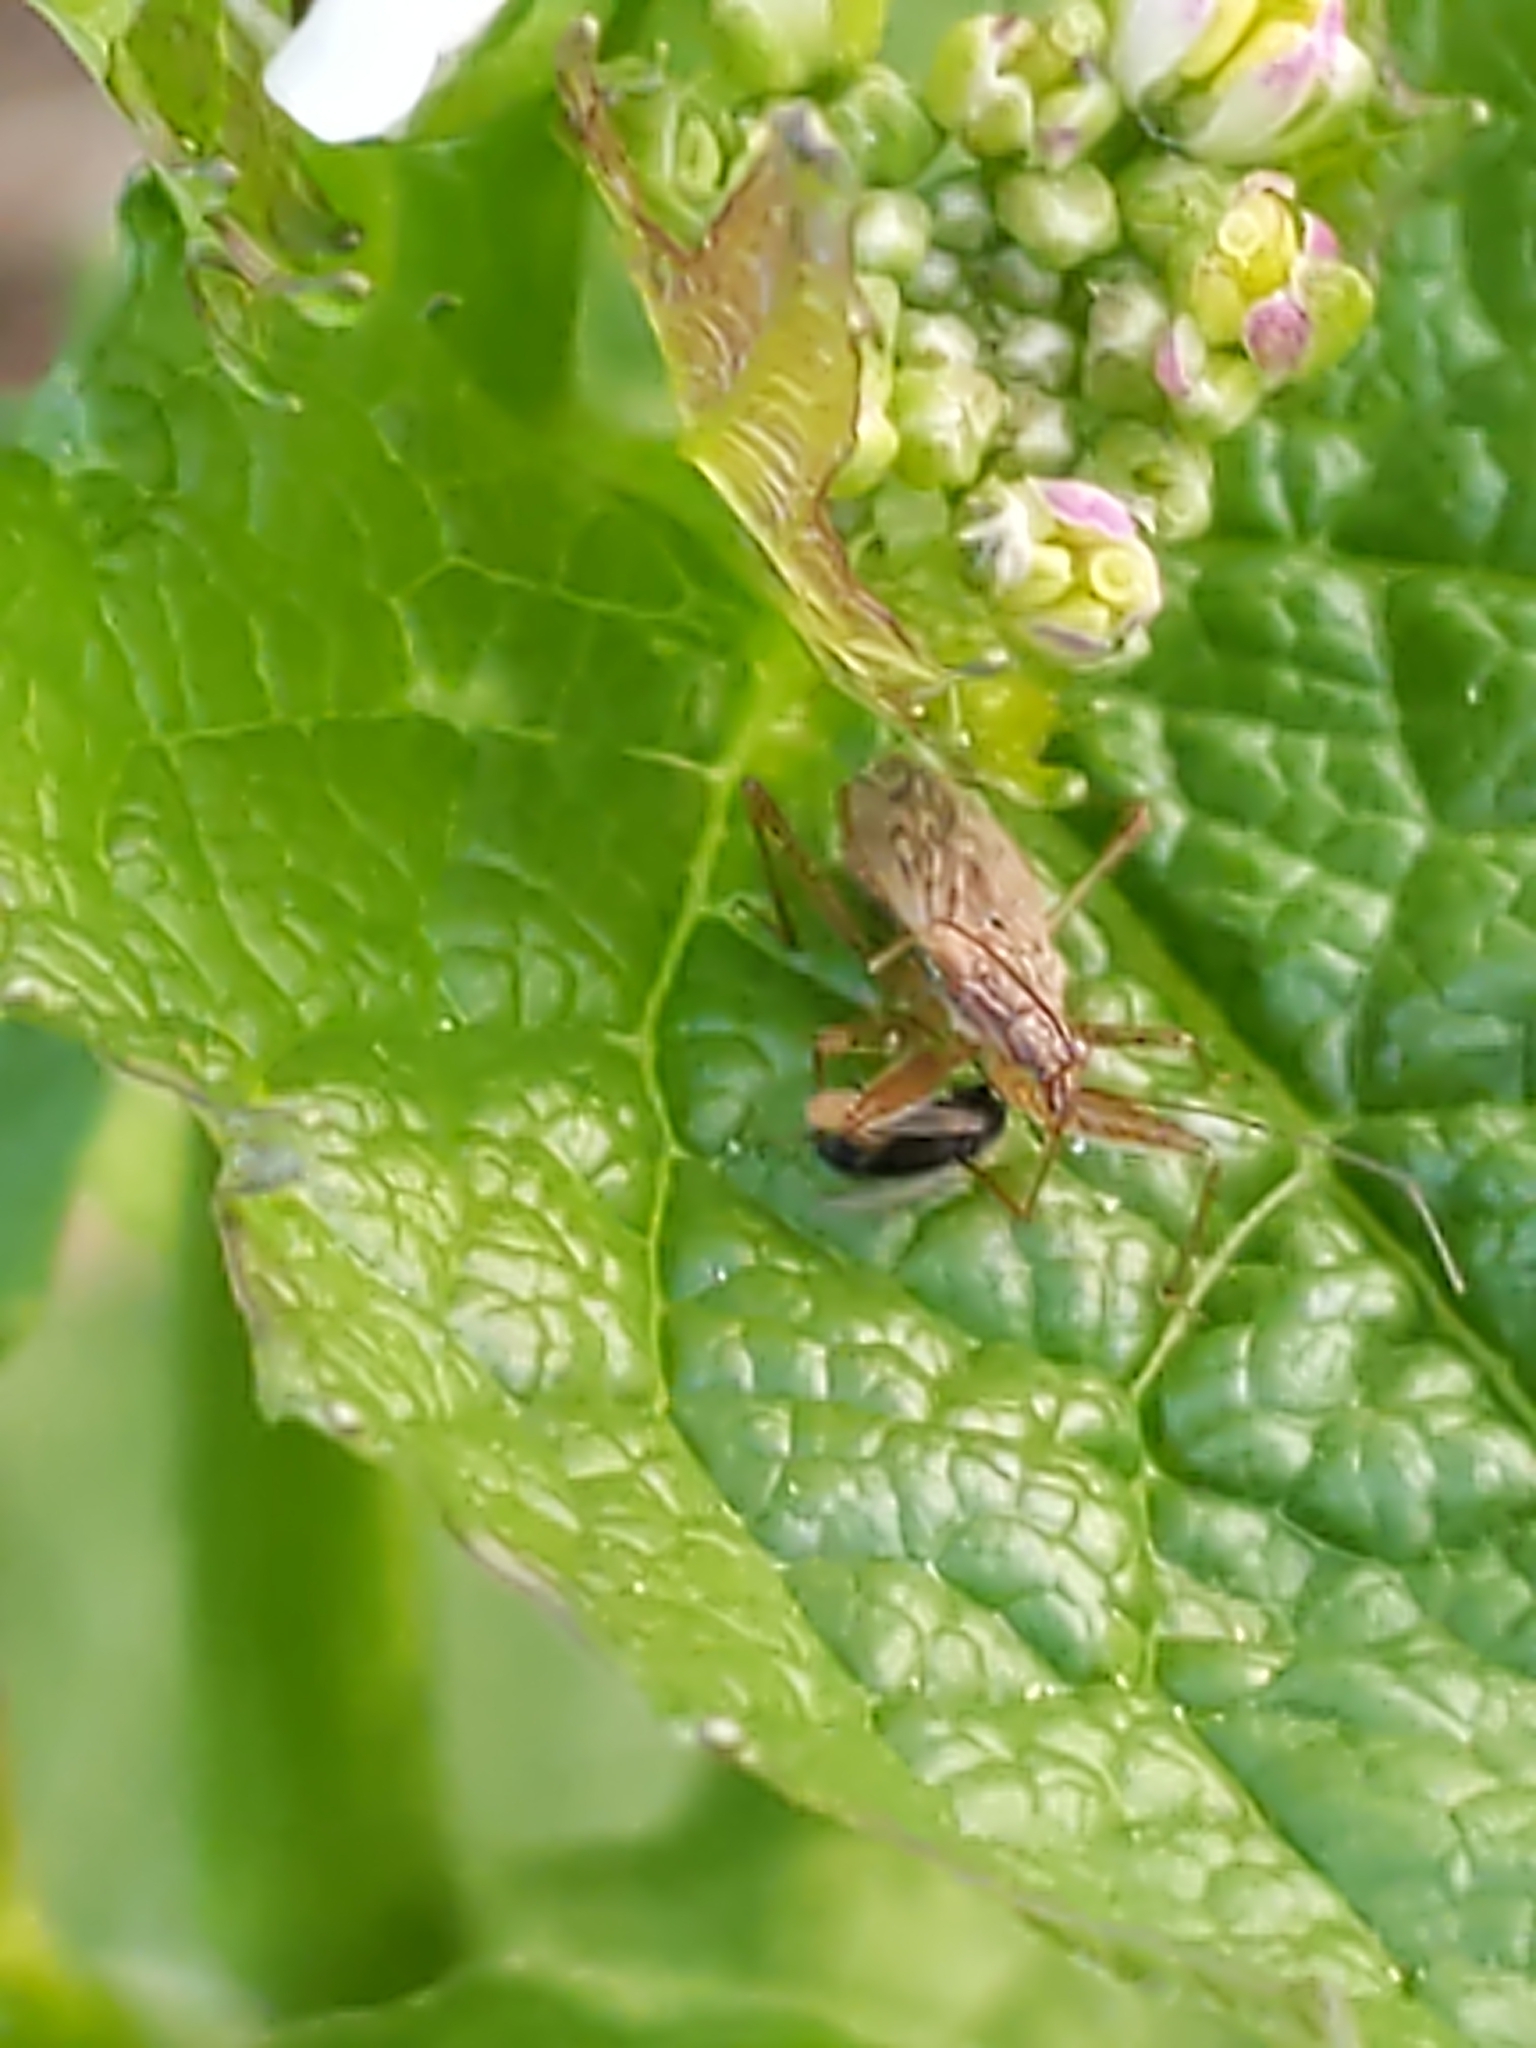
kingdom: Animalia
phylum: Arthropoda
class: Insecta
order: Hemiptera
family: Nabidae
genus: Nabis
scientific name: Nabis
